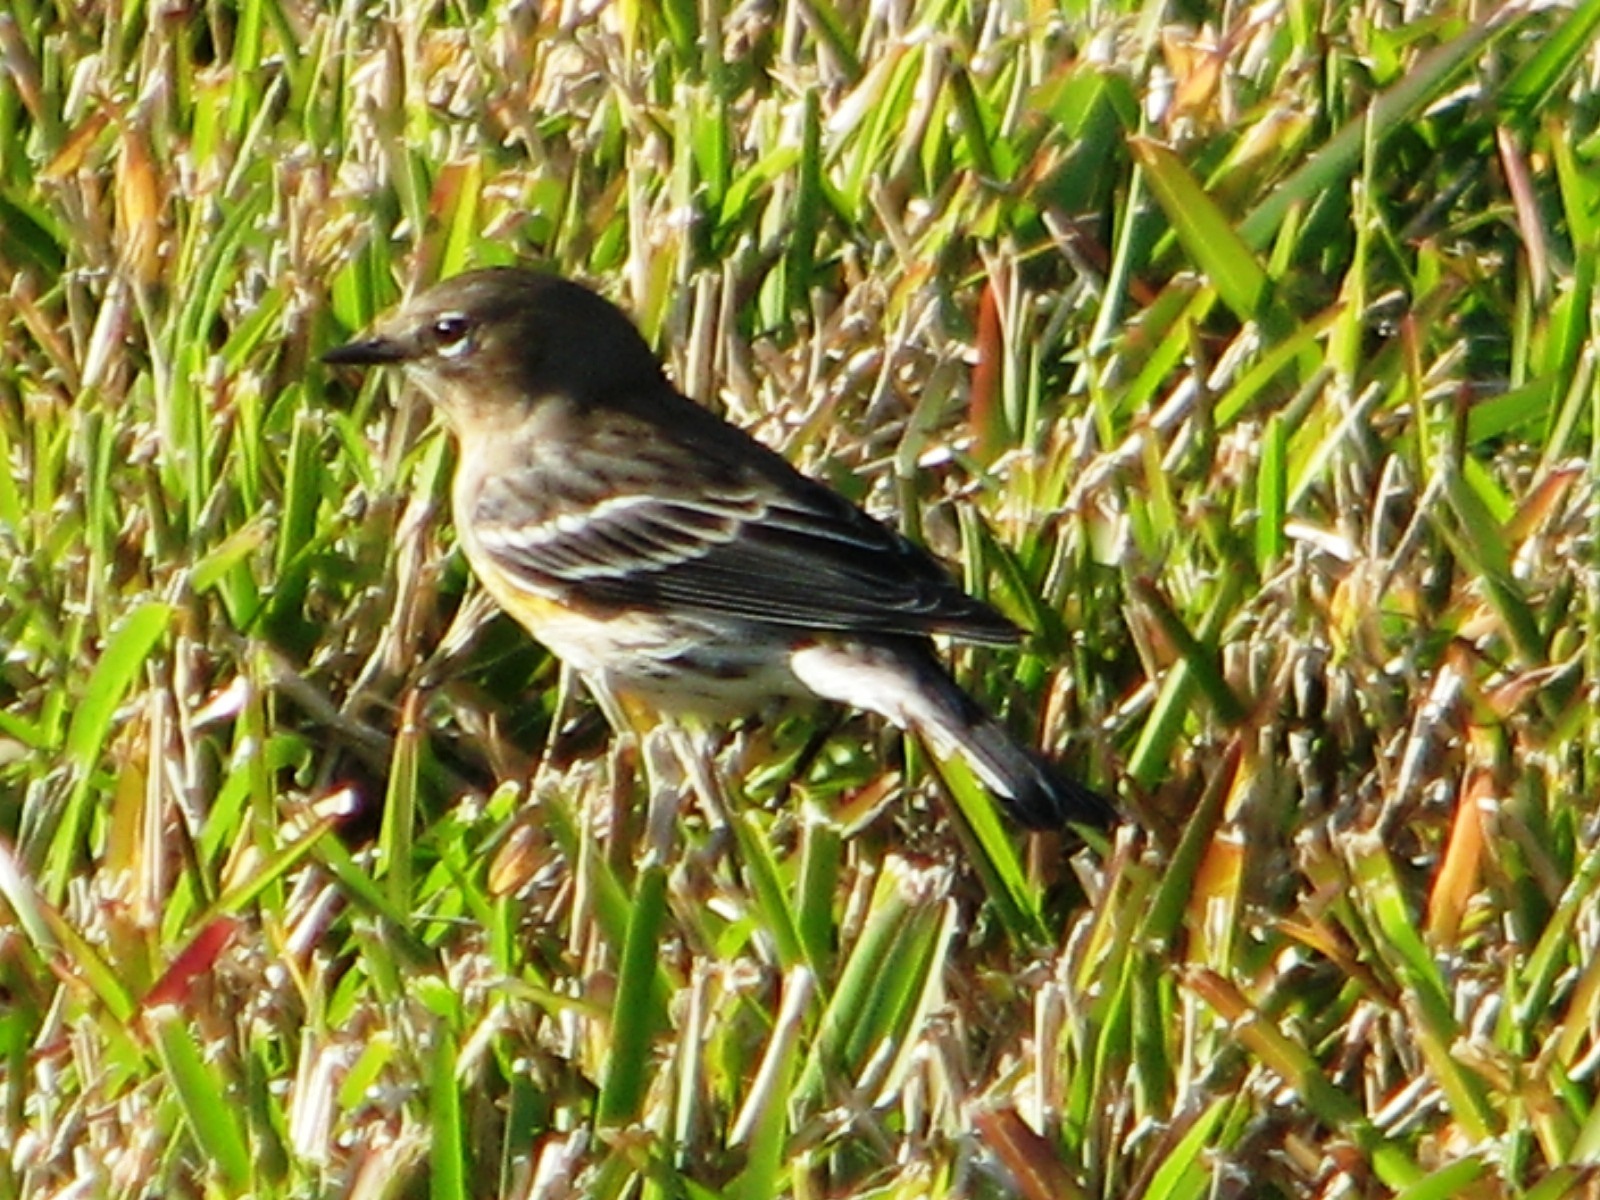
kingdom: Animalia
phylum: Chordata
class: Aves
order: Passeriformes
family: Parulidae
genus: Setophaga
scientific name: Setophaga coronata
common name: Myrtle warbler
